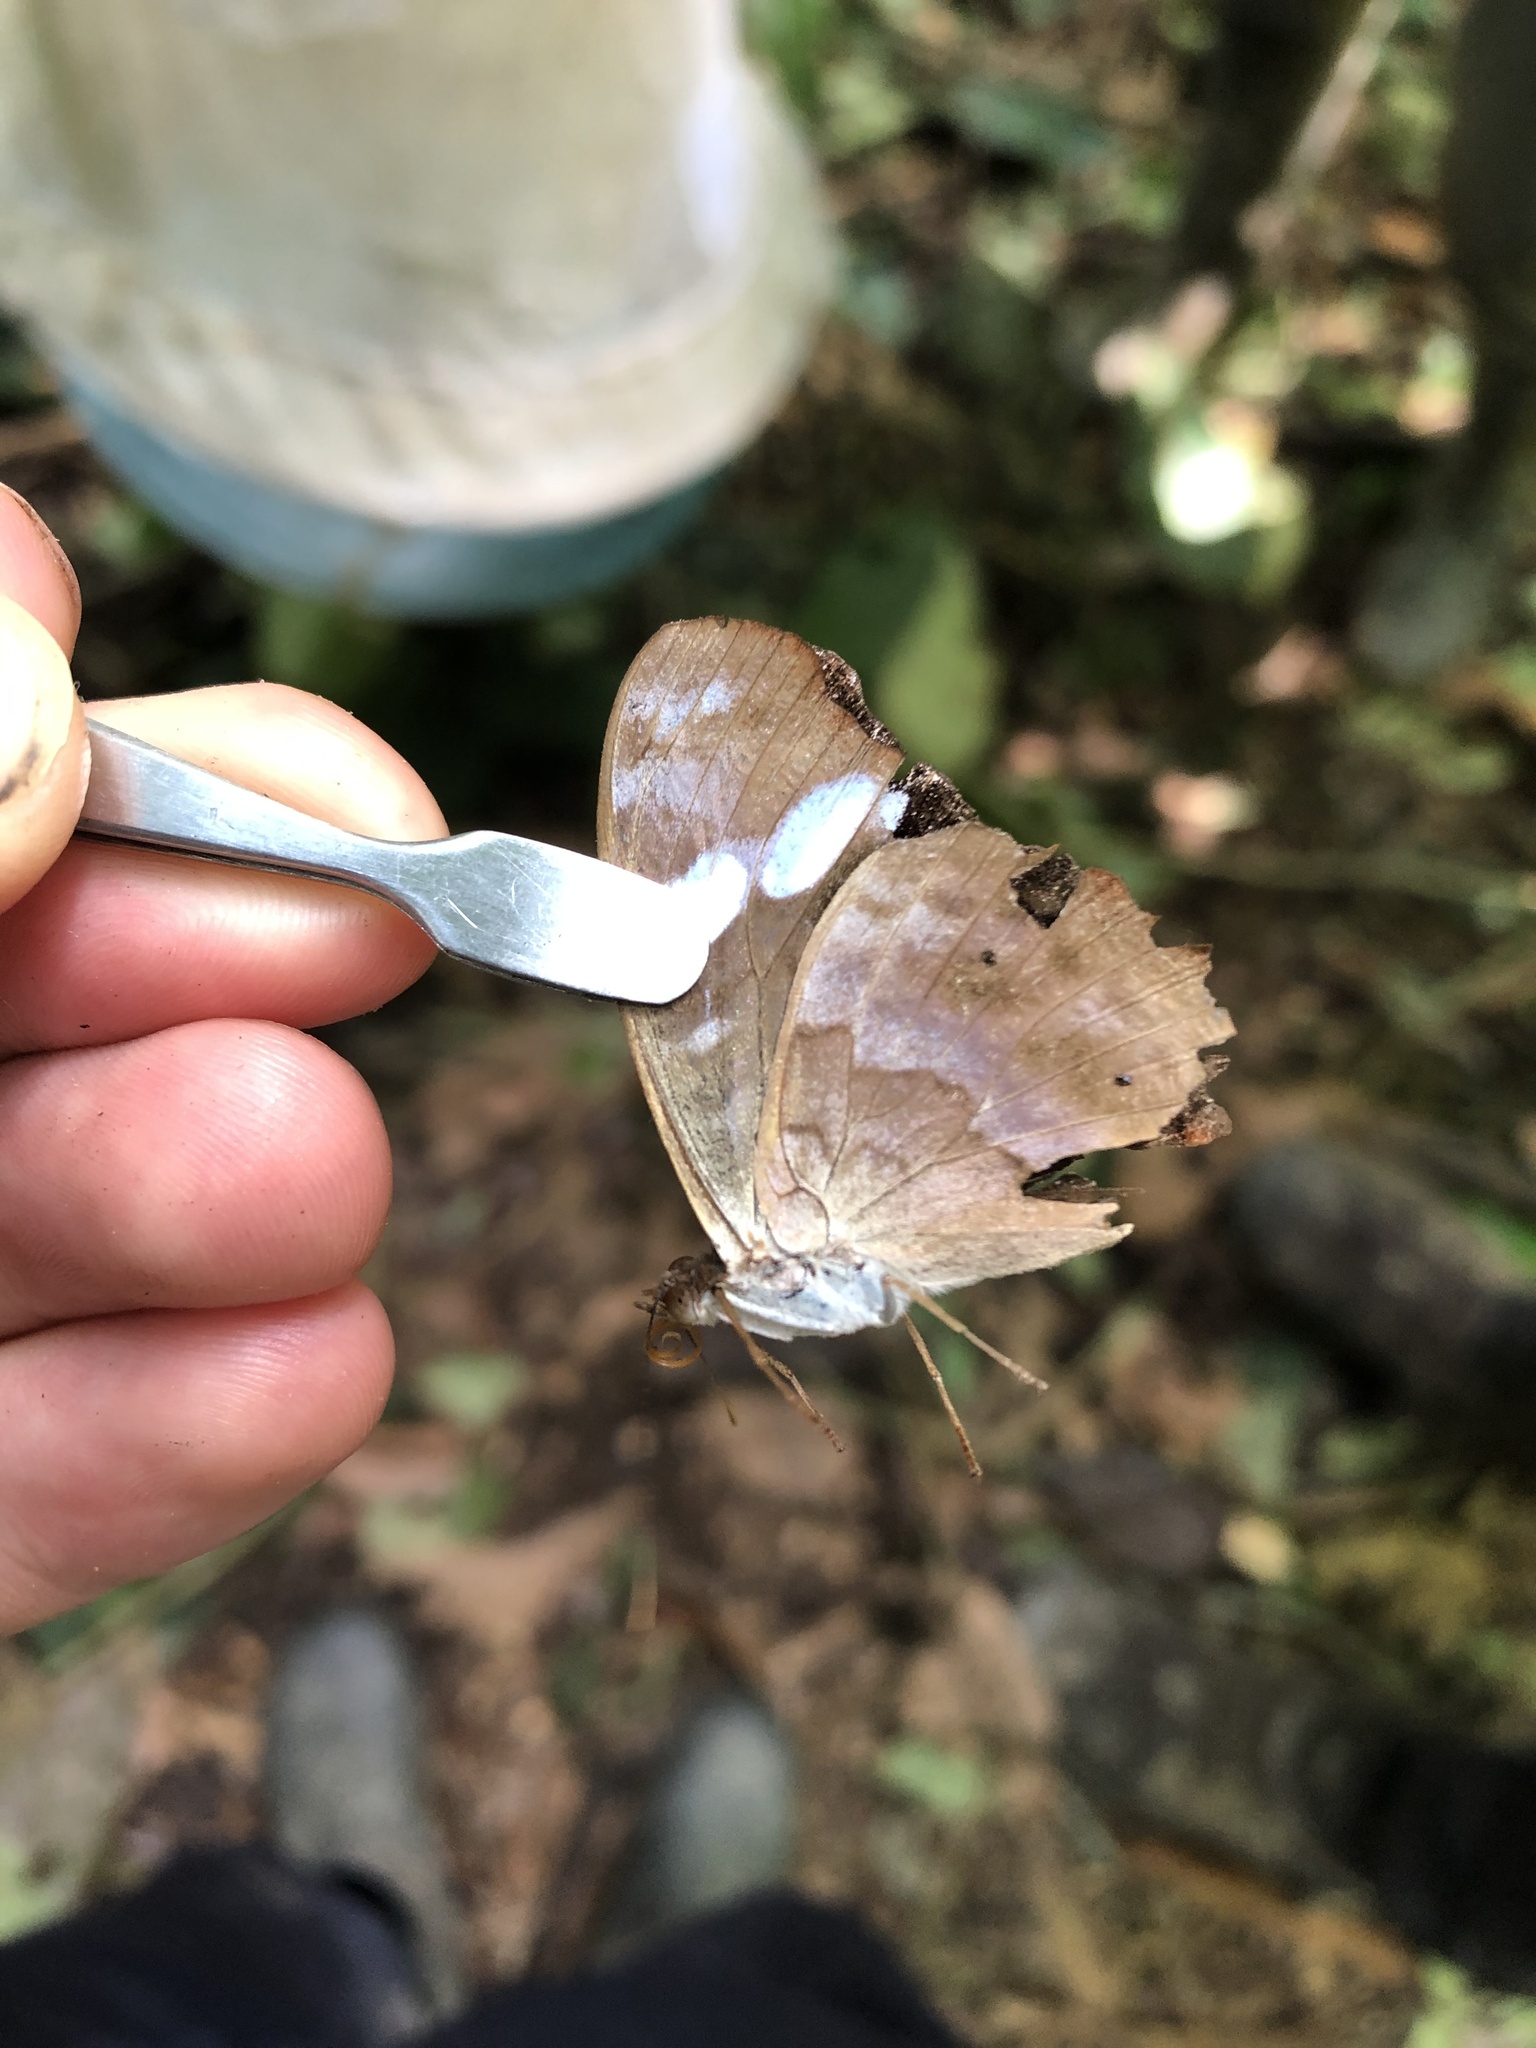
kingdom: Animalia
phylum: Arthropoda
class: Insecta
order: Lepidoptera
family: Nymphalidae
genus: Myscelia
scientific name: Myscelia capenas
